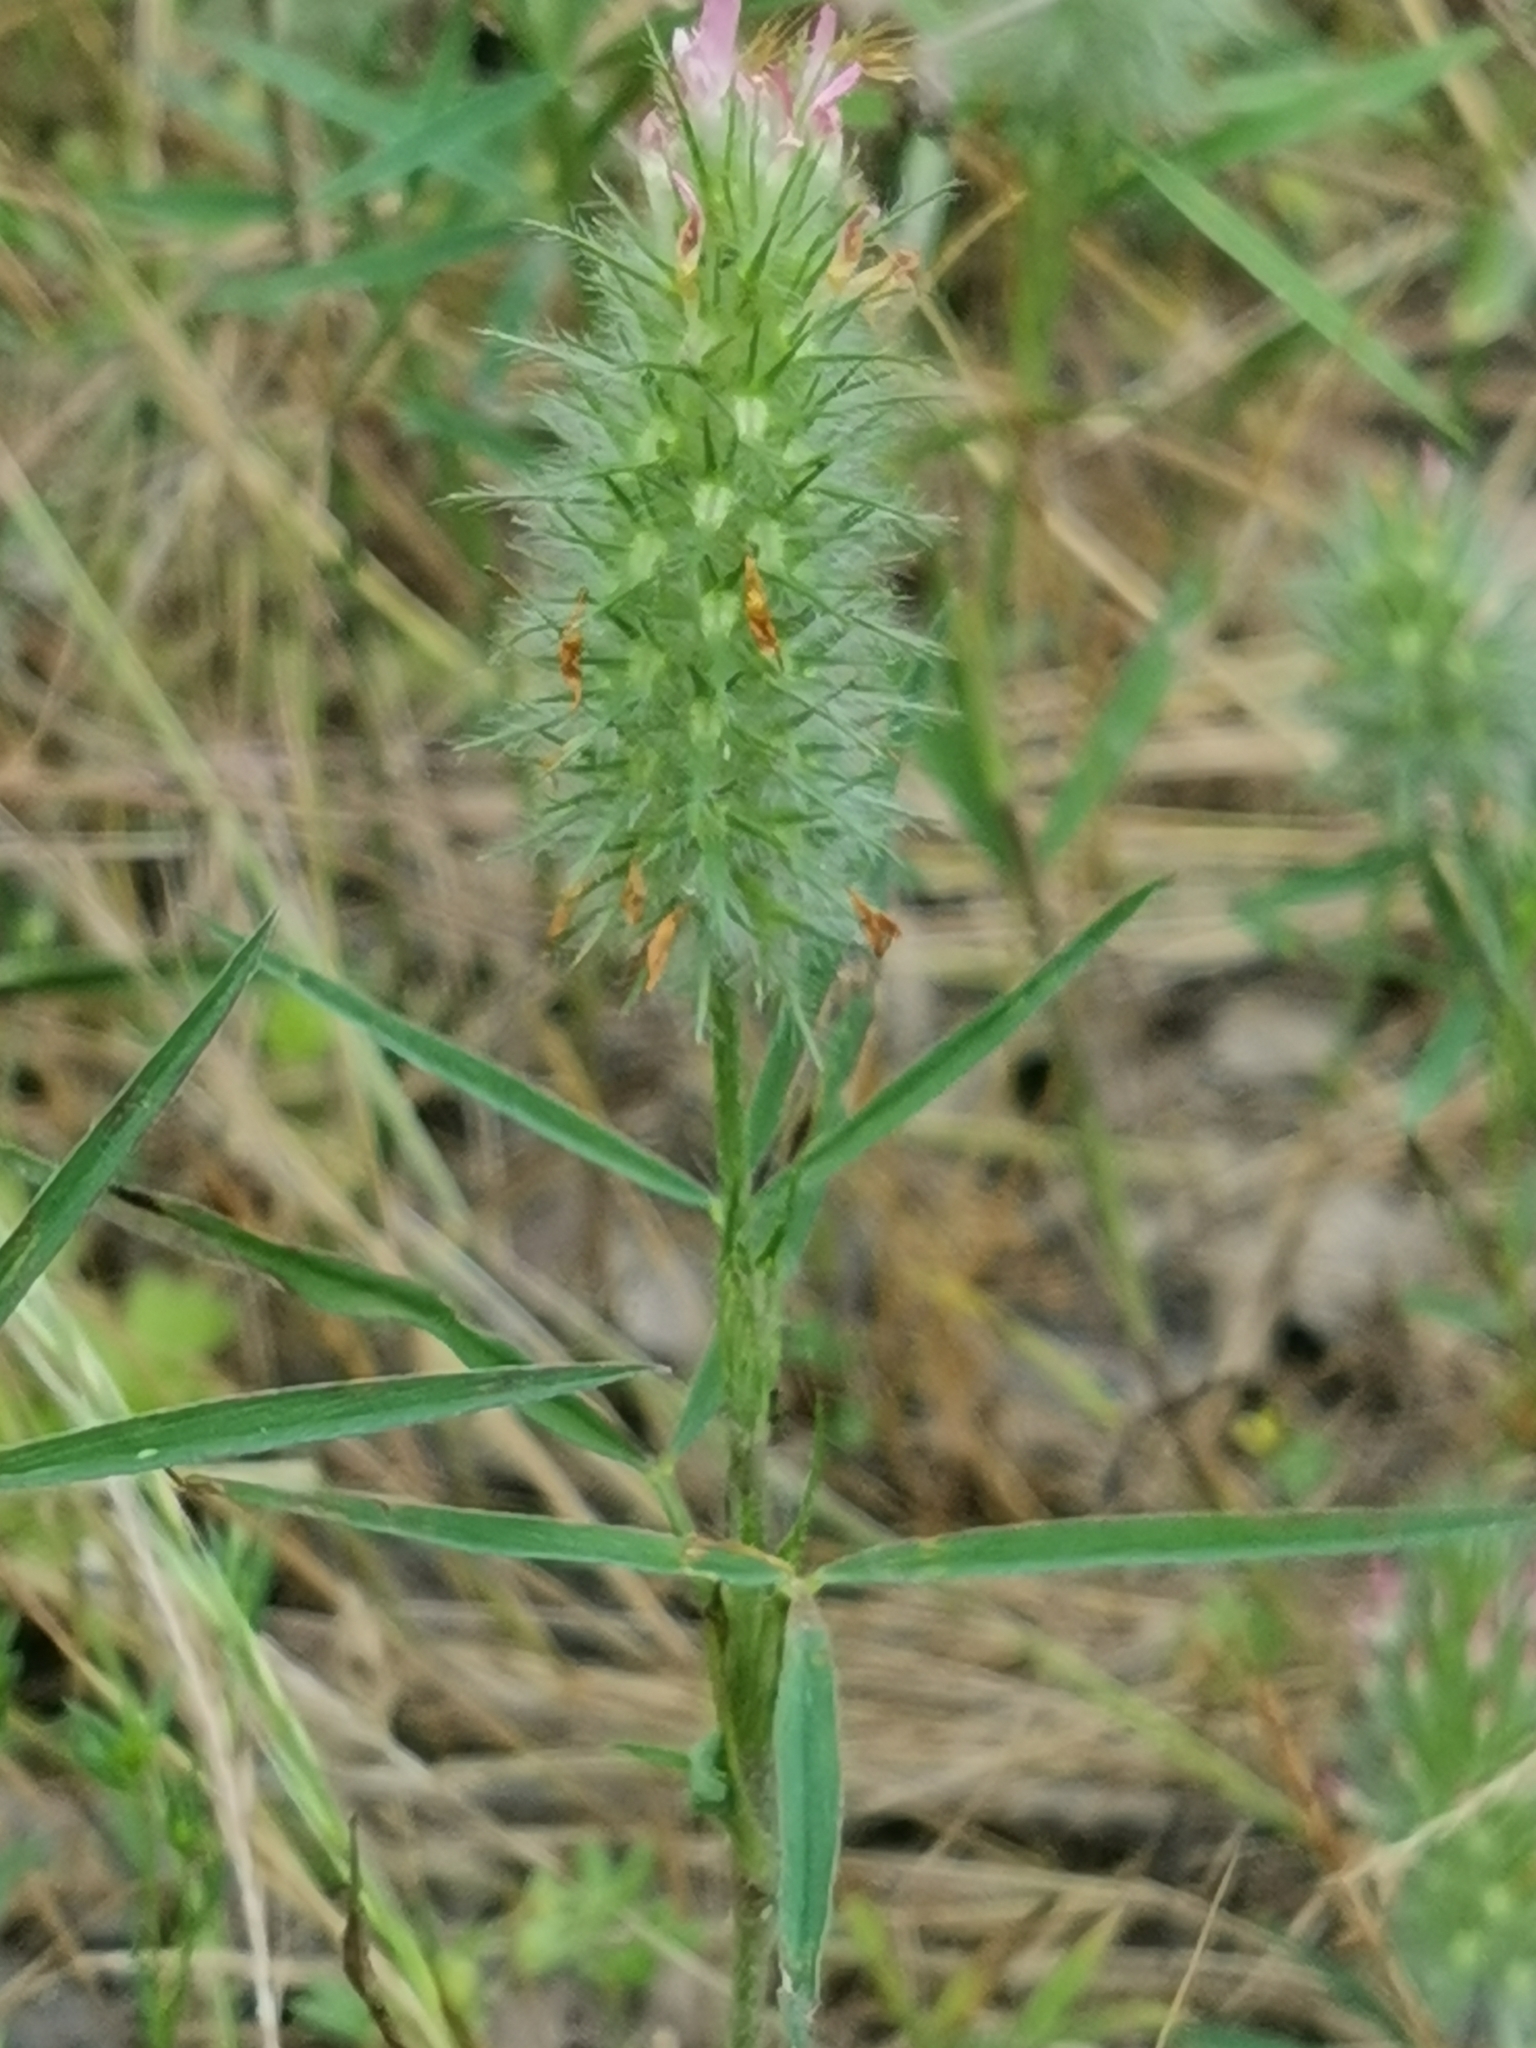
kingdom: Plantae
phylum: Tracheophyta
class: Magnoliopsida
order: Fabales
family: Fabaceae
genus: Trifolium
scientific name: Trifolium angustifolium
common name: Narrow clover
